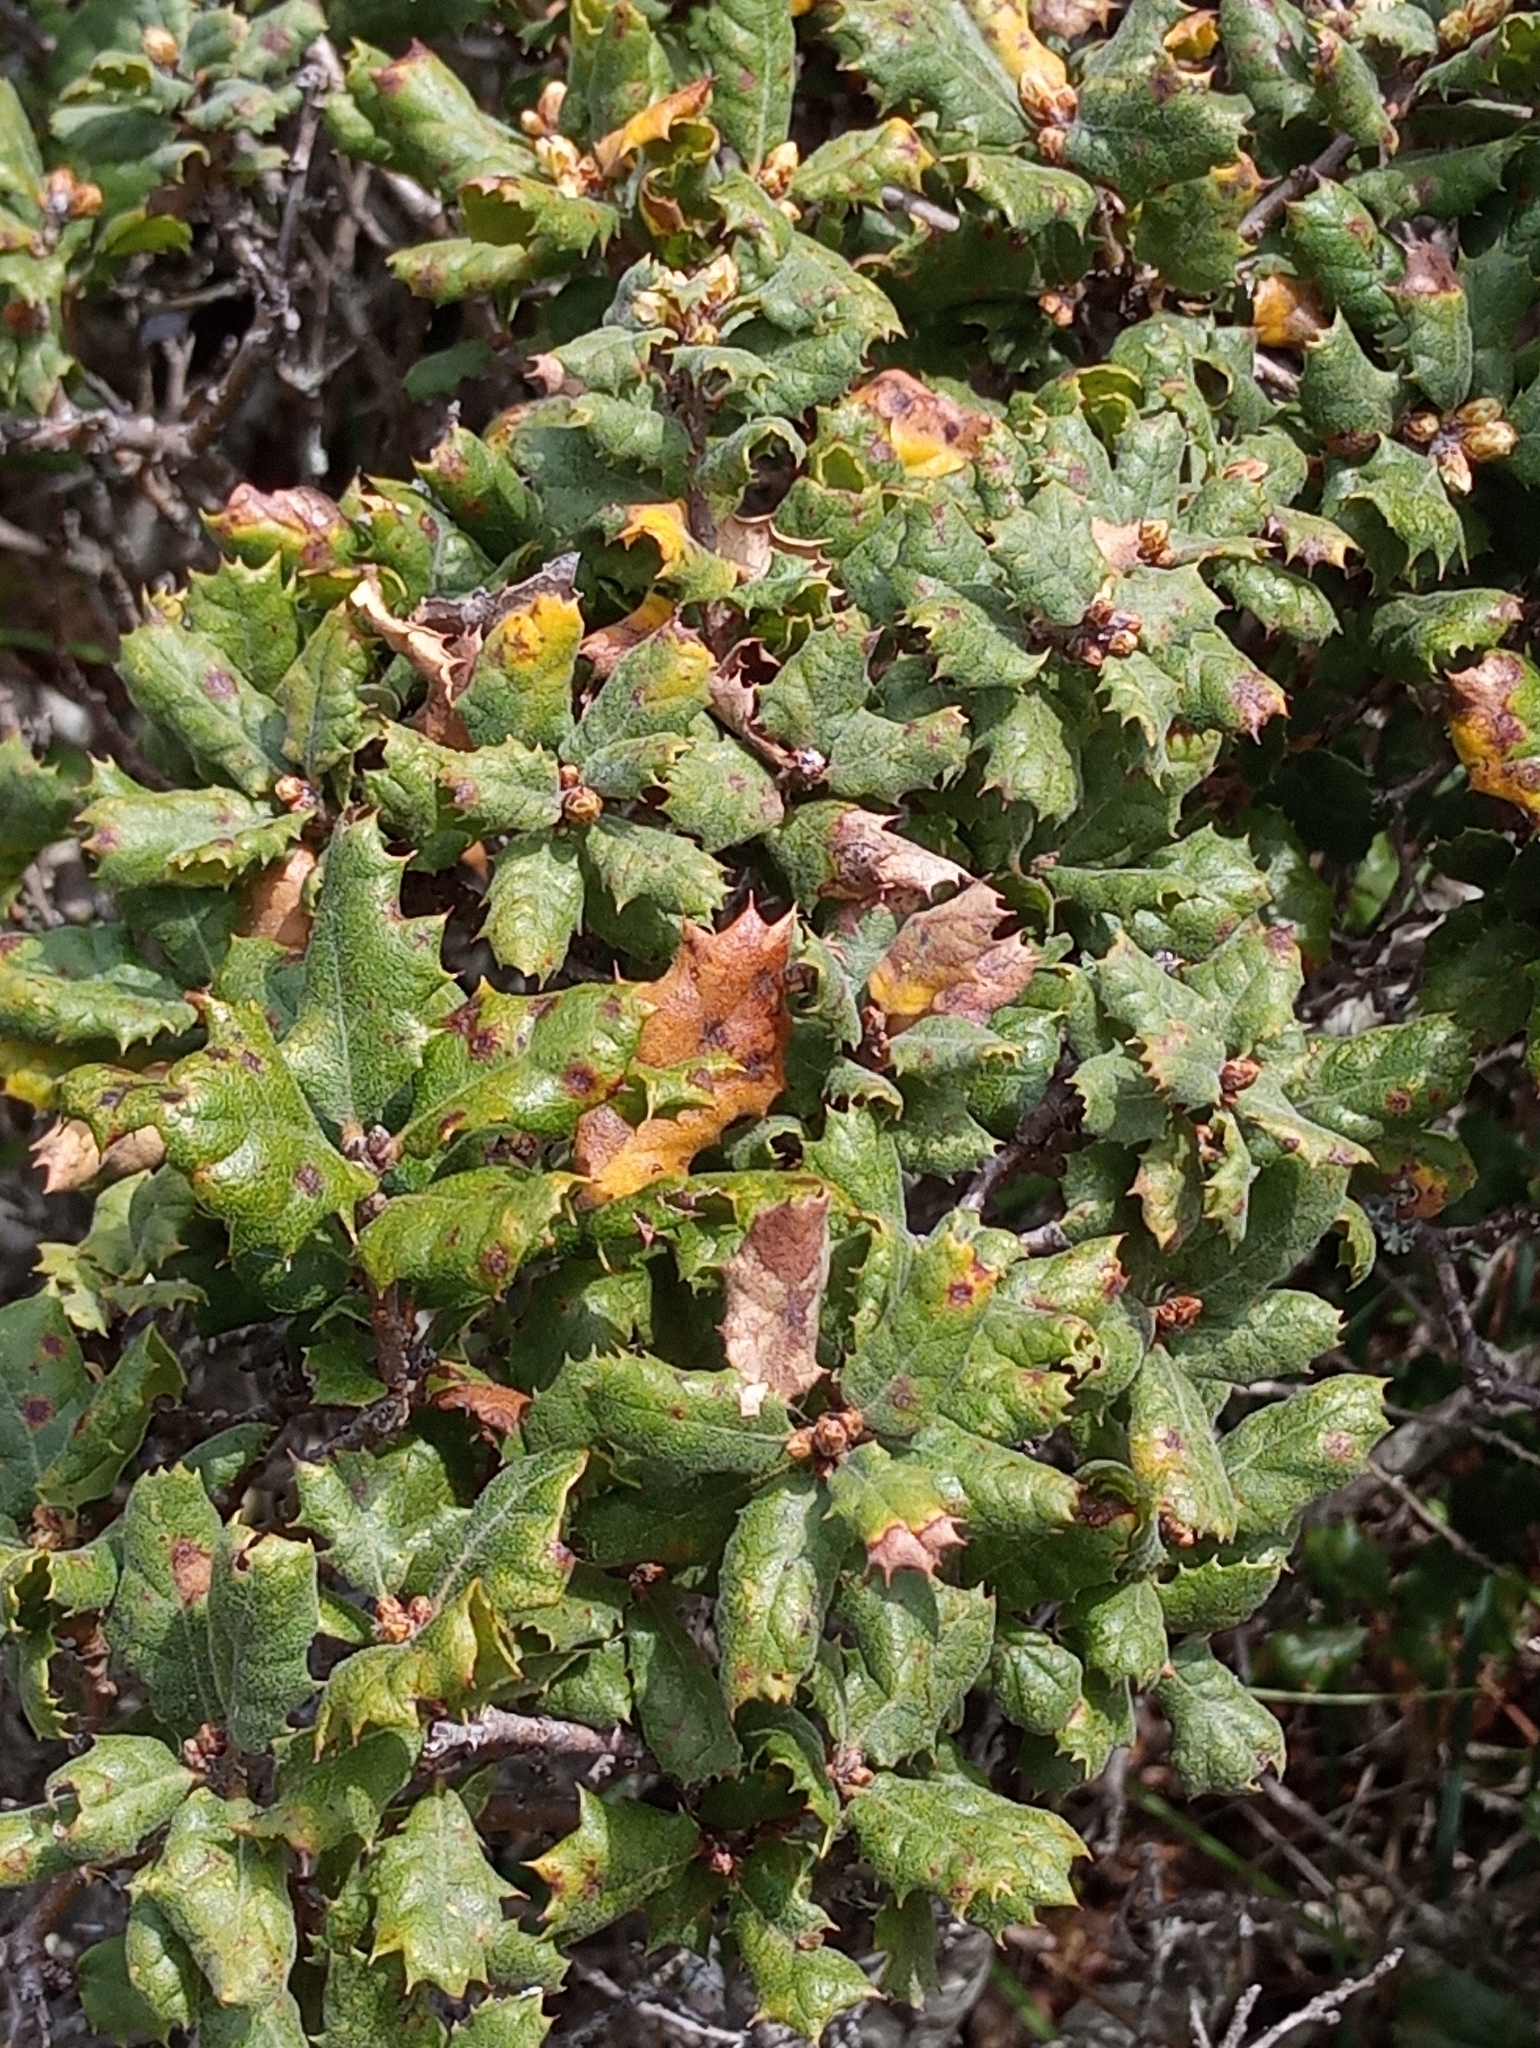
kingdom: Plantae
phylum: Tracheophyta
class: Magnoliopsida
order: Fagales
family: Fagaceae
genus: Quercus
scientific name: Quercus durata
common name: Leather oak
